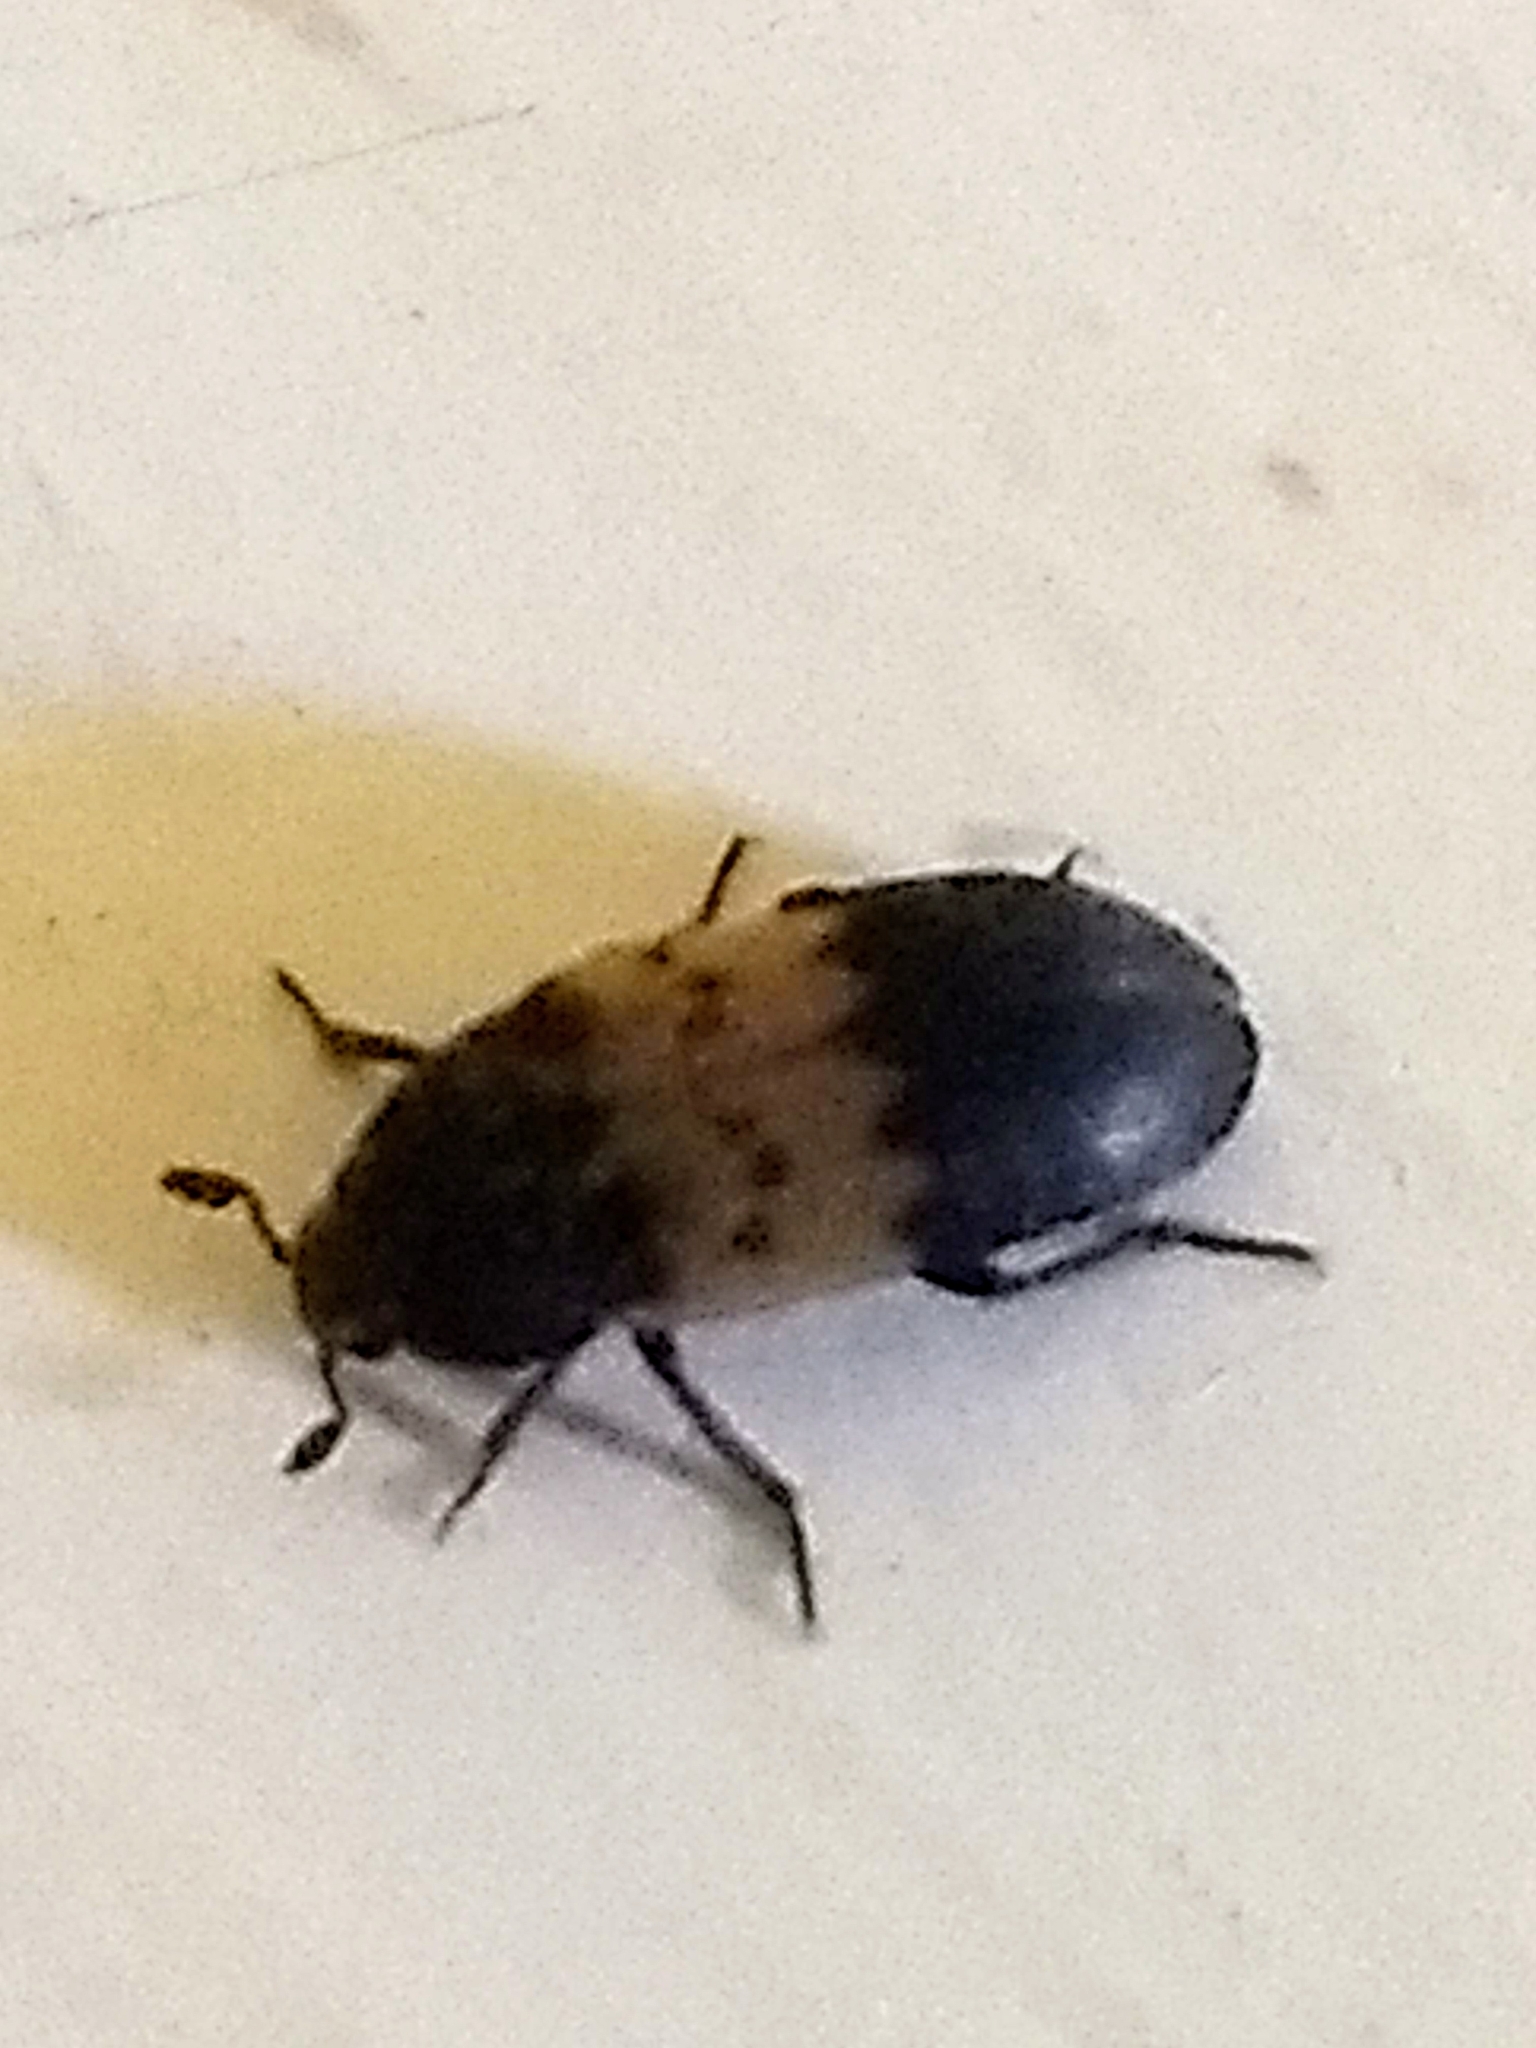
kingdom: Animalia
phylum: Arthropoda
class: Insecta
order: Coleoptera
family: Dermestidae
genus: Dermestes
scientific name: Dermestes lardarius
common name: Larder beetle
